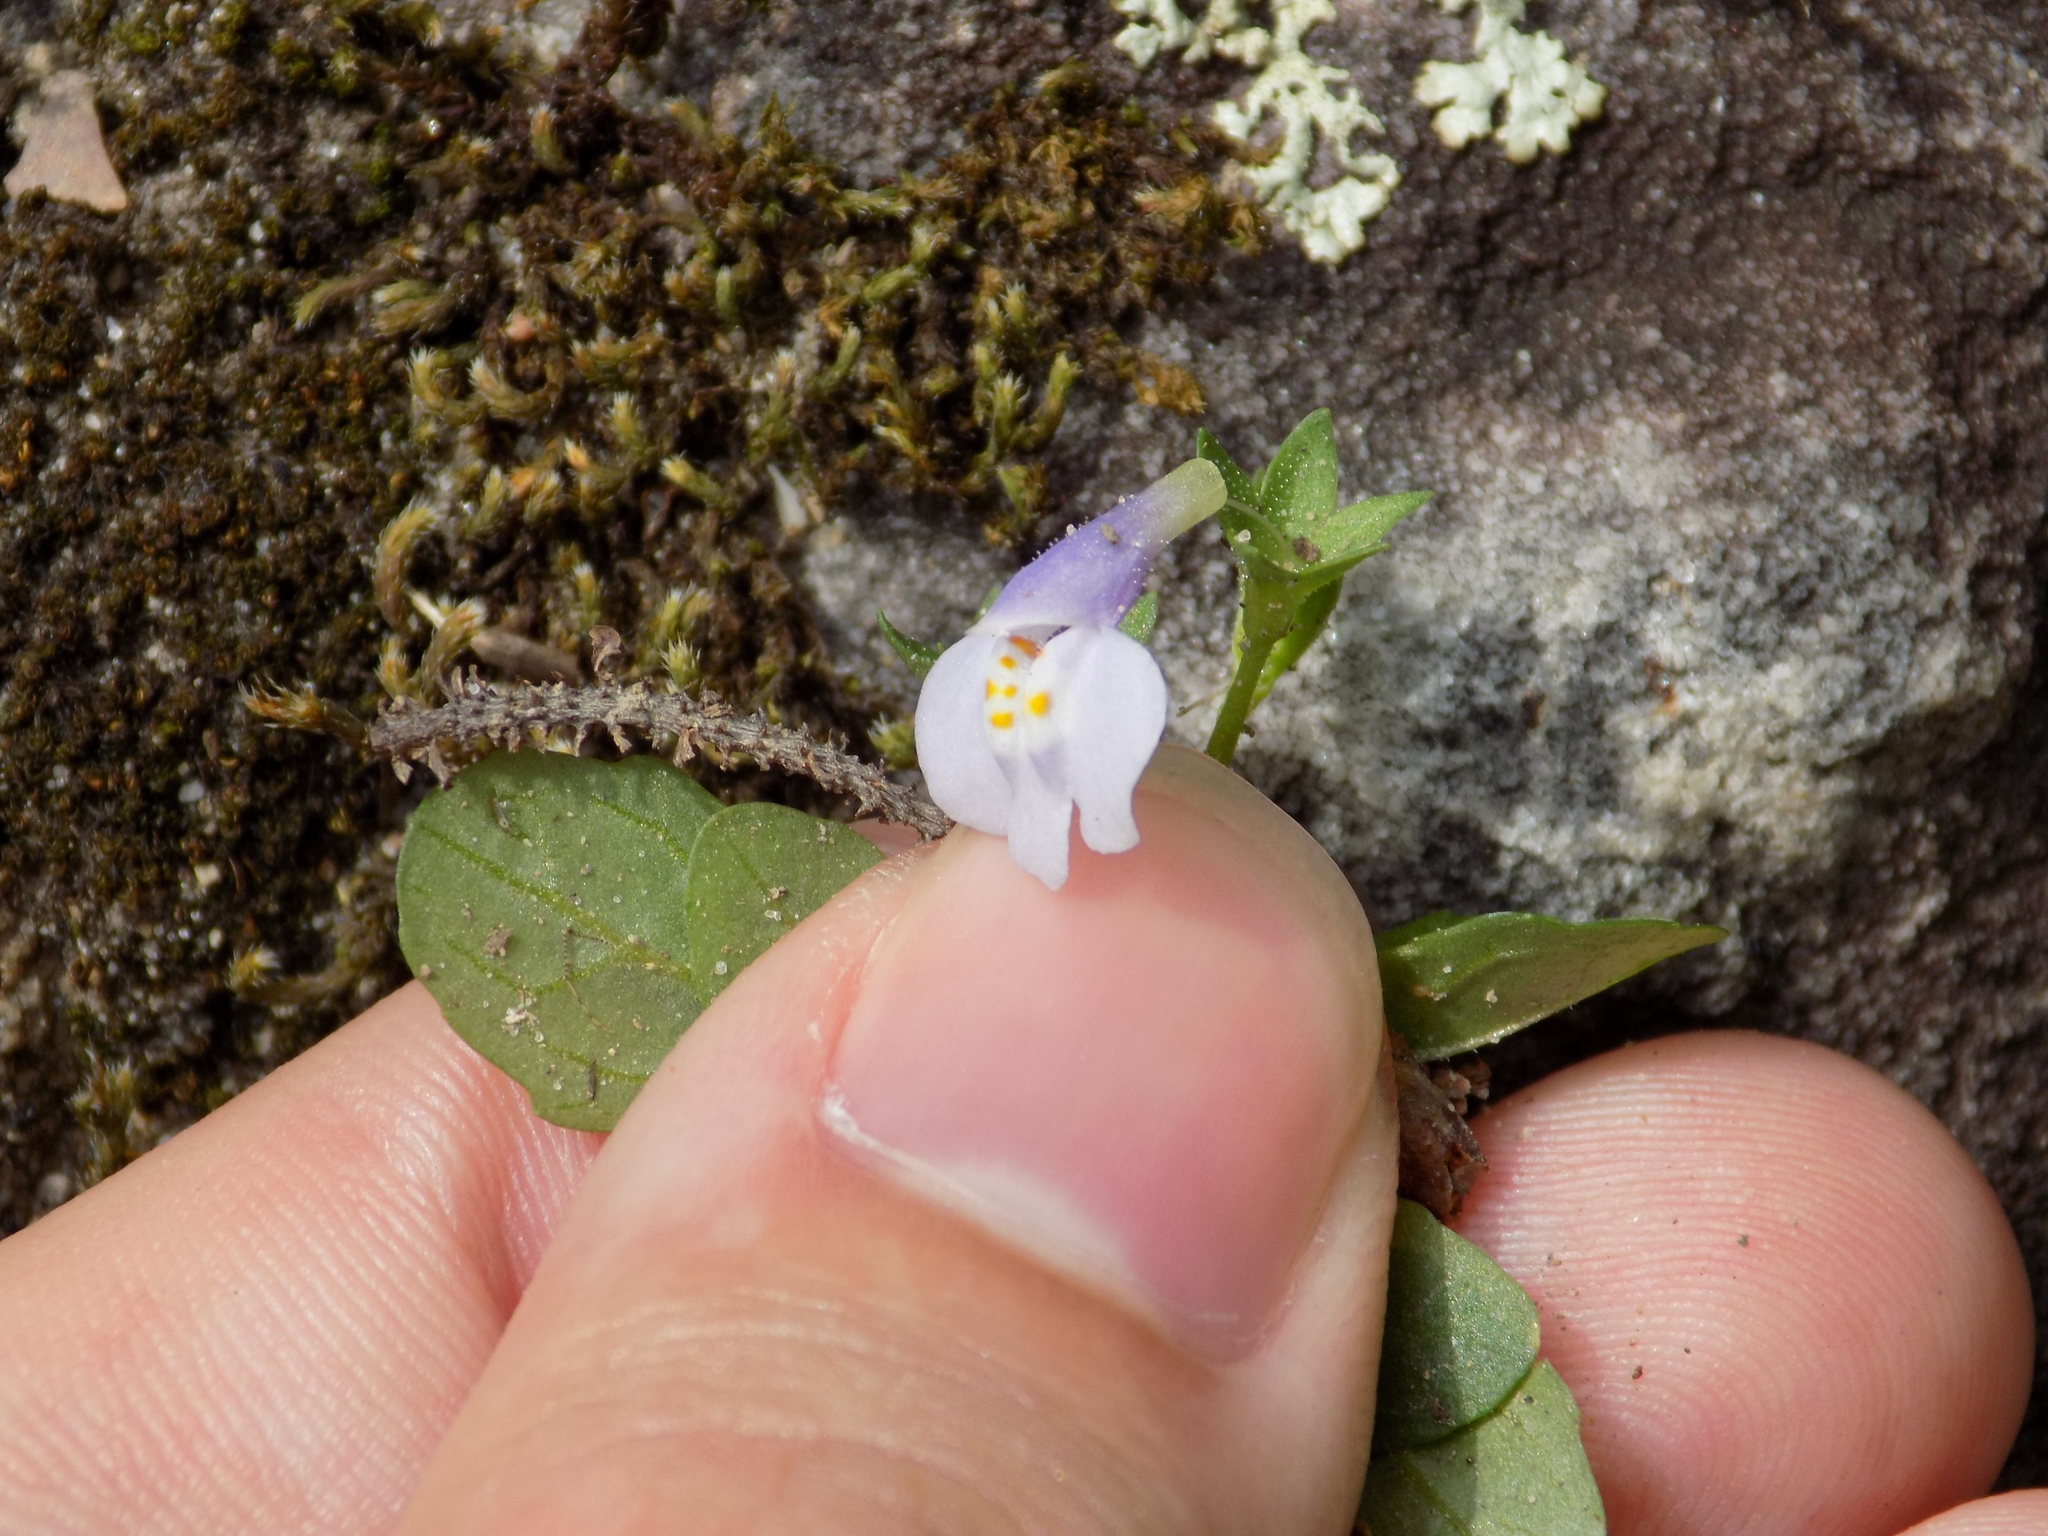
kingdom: Plantae
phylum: Tracheophyta
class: Magnoliopsida
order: Lamiales
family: Mazaceae
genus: Mazus
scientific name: Mazus pumilus
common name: Japanese mazus
